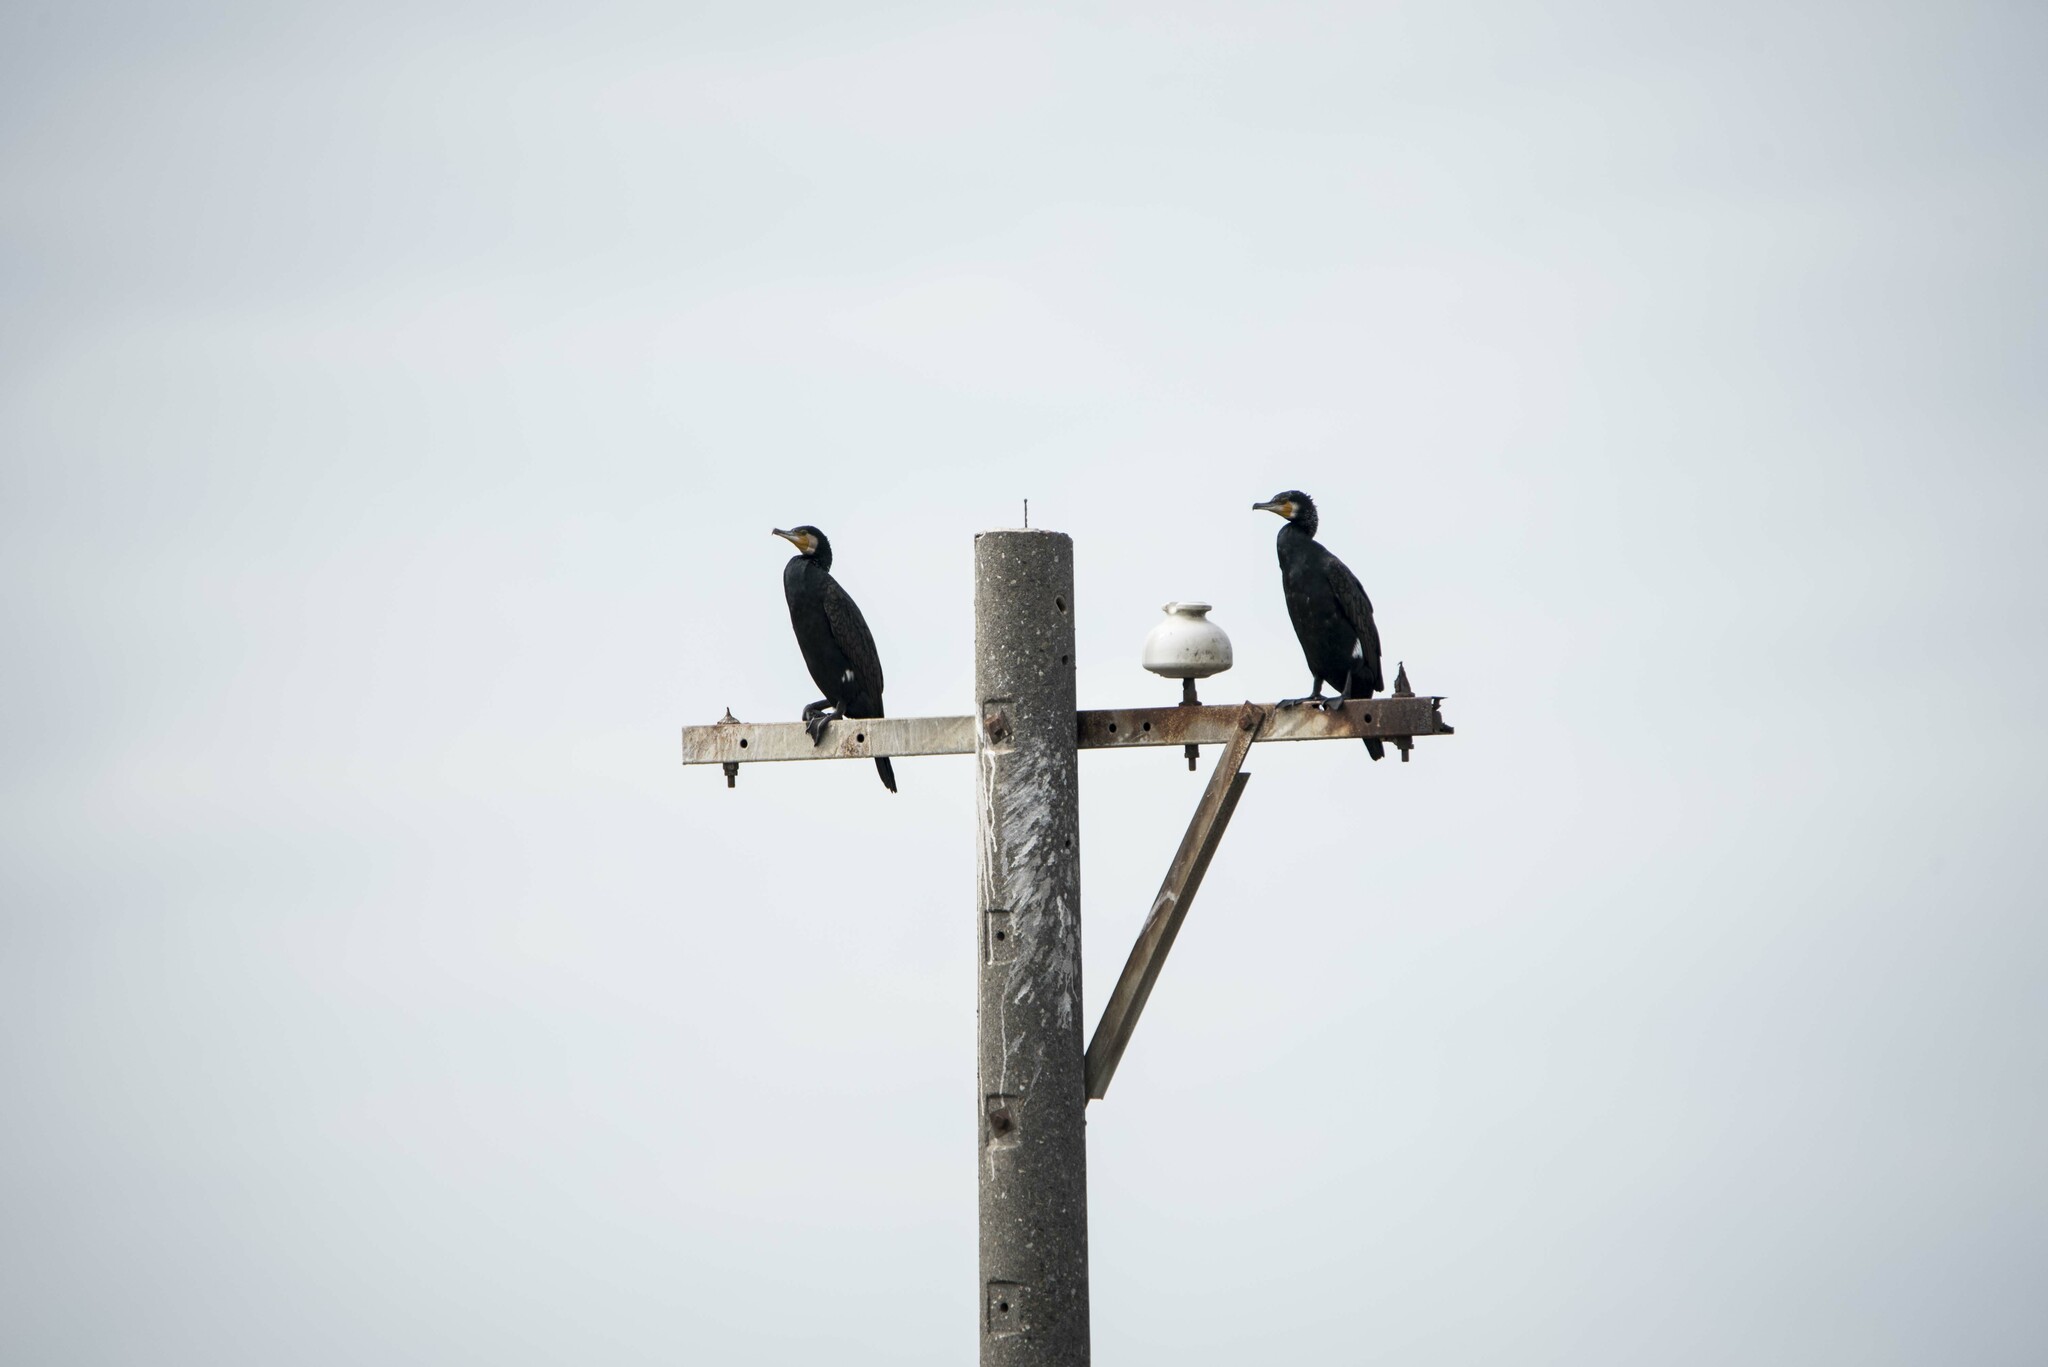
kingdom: Animalia
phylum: Chordata
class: Aves
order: Suliformes
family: Phalacrocoracidae
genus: Phalacrocorax
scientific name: Phalacrocorax carbo
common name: Great cormorant
